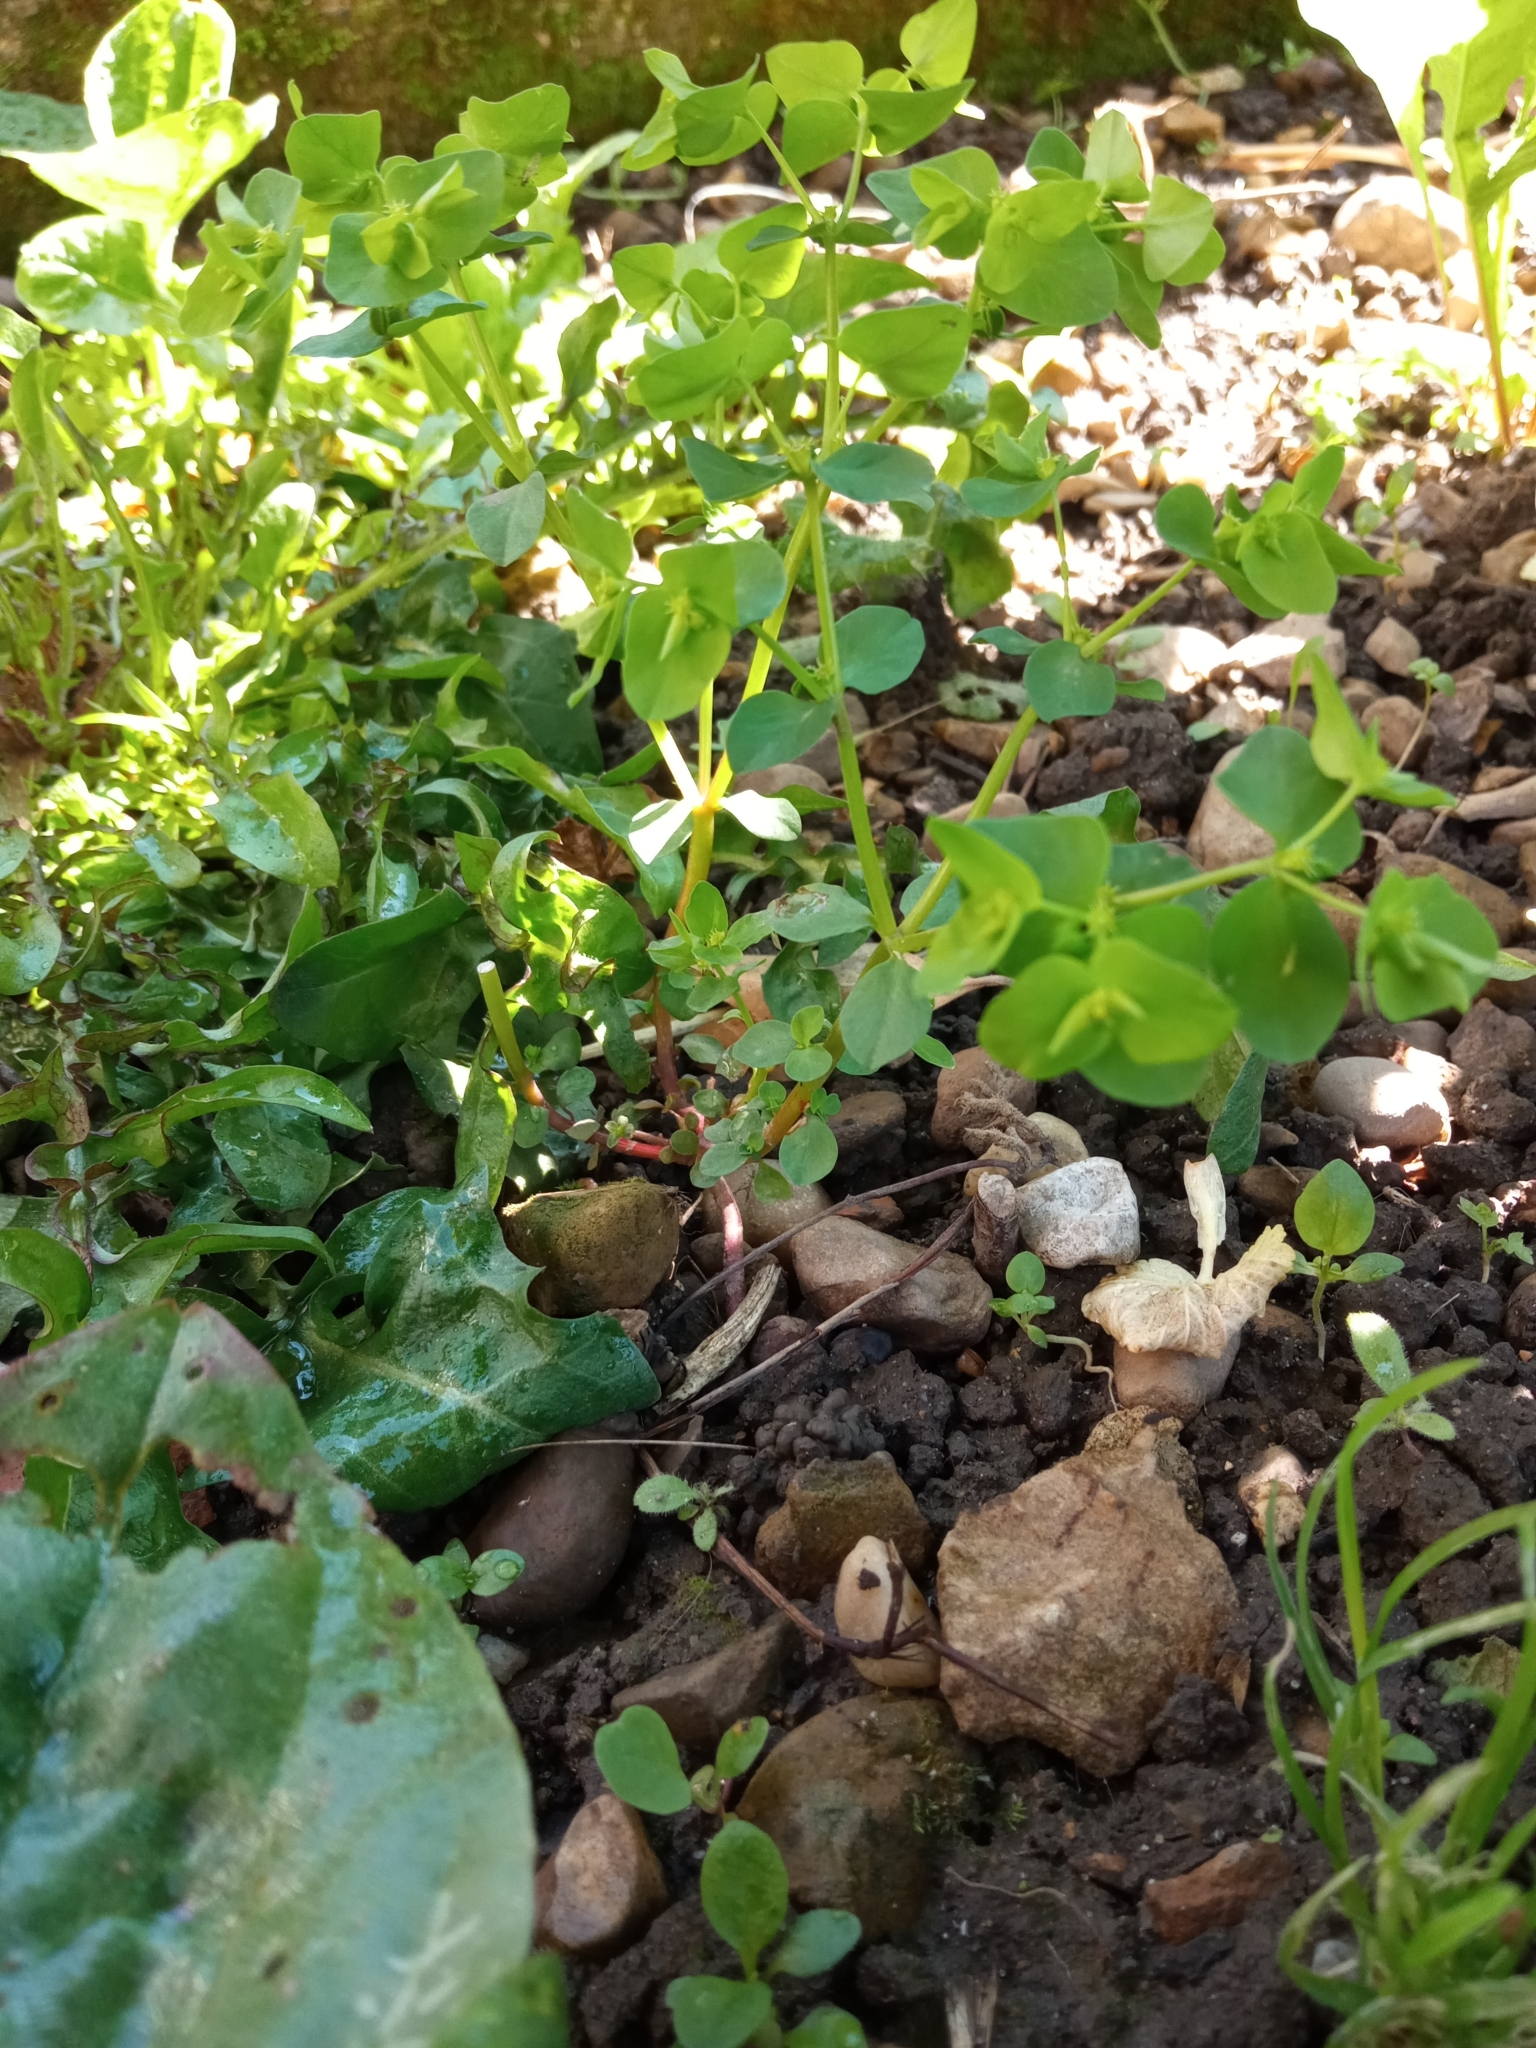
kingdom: Plantae
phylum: Tracheophyta
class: Magnoliopsida
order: Malpighiales
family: Euphorbiaceae
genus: Euphorbia
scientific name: Euphorbia peplus
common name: Petty spurge
